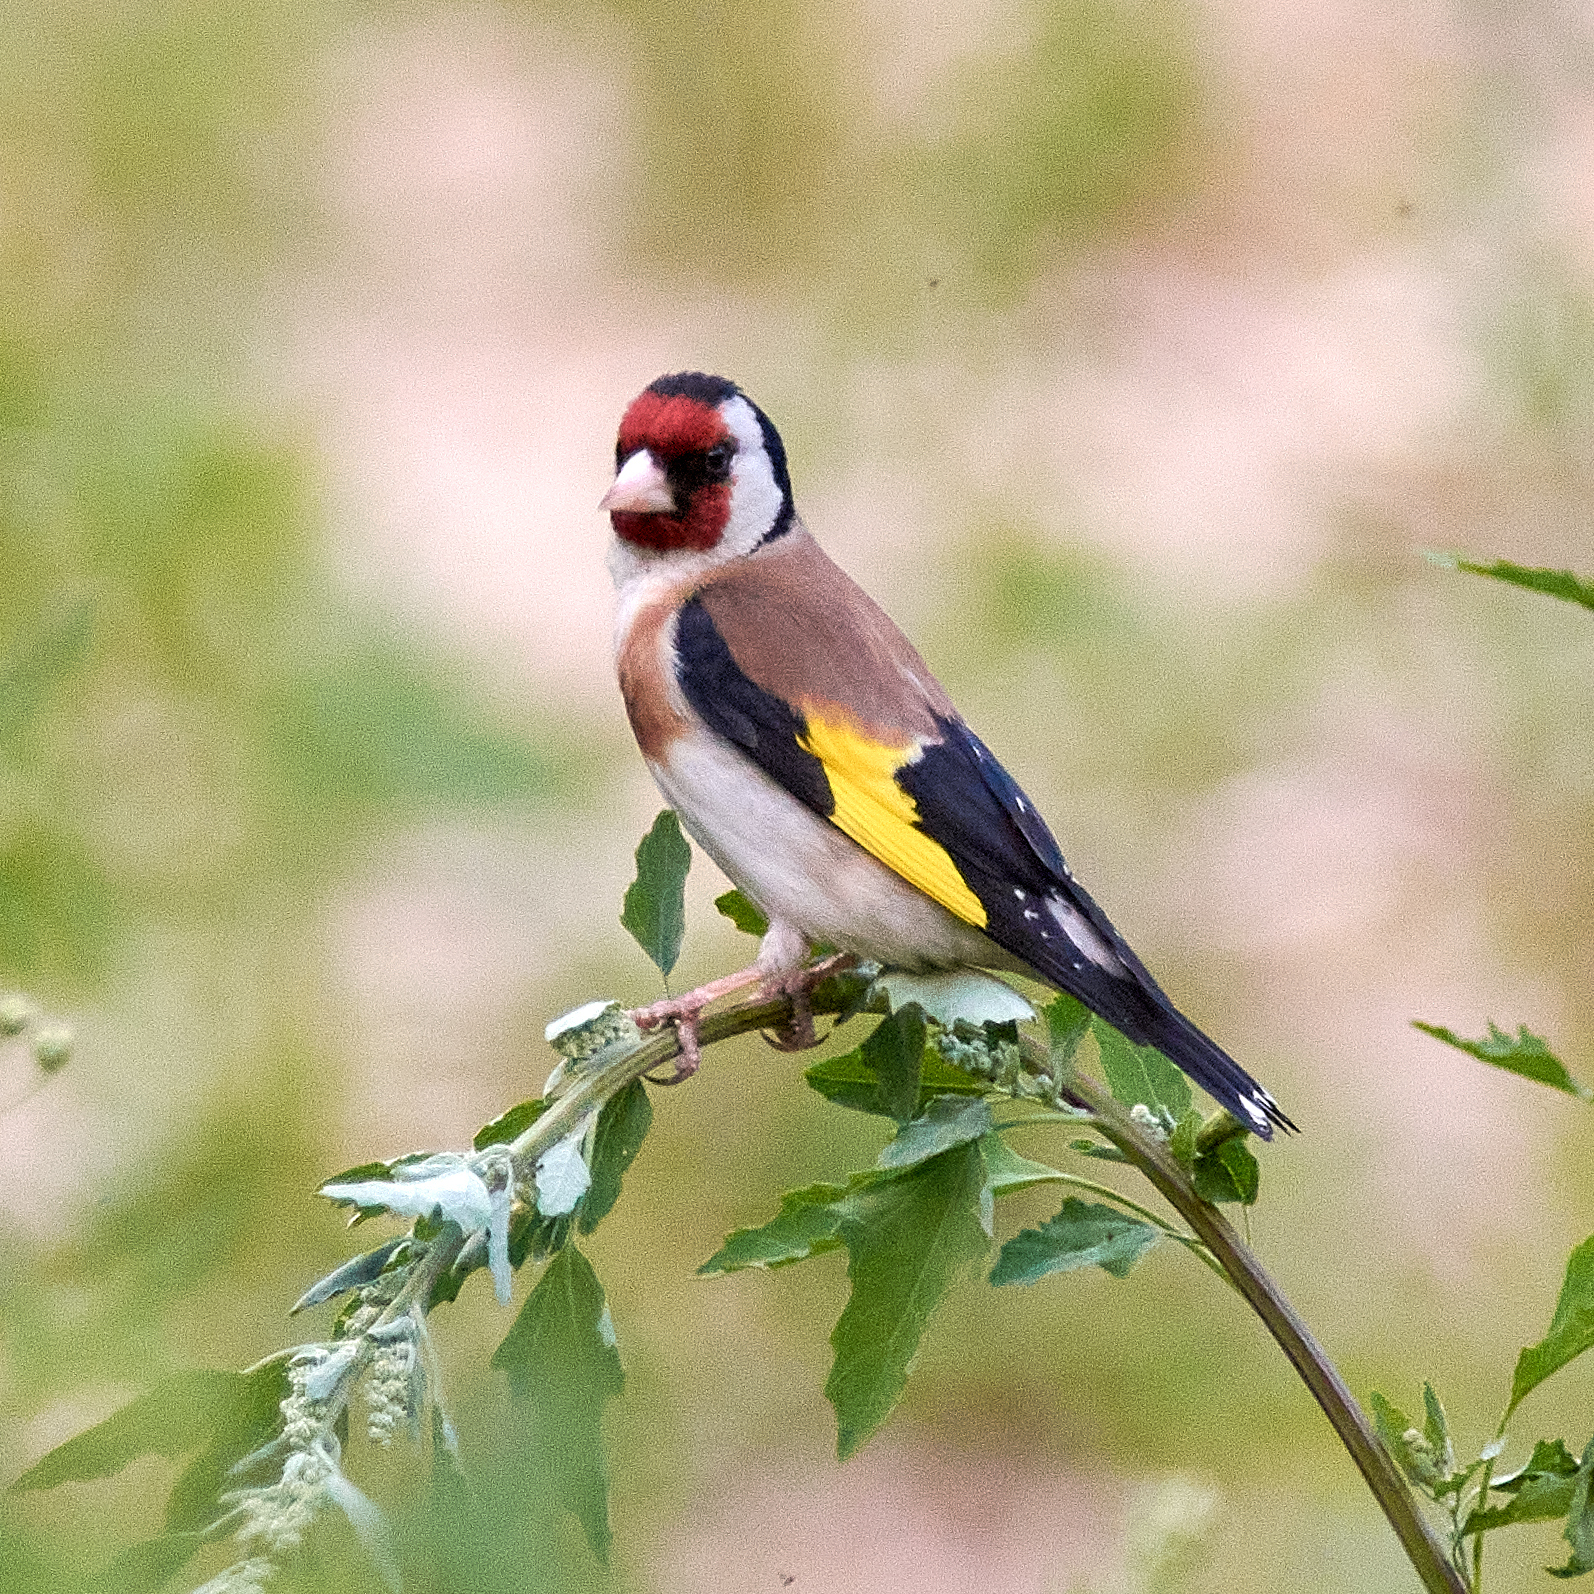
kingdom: Animalia
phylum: Chordata
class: Aves
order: Passeriformes
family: Fringillidae
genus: Carduelis
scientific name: Carduelis carduelis
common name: European goldfinch
